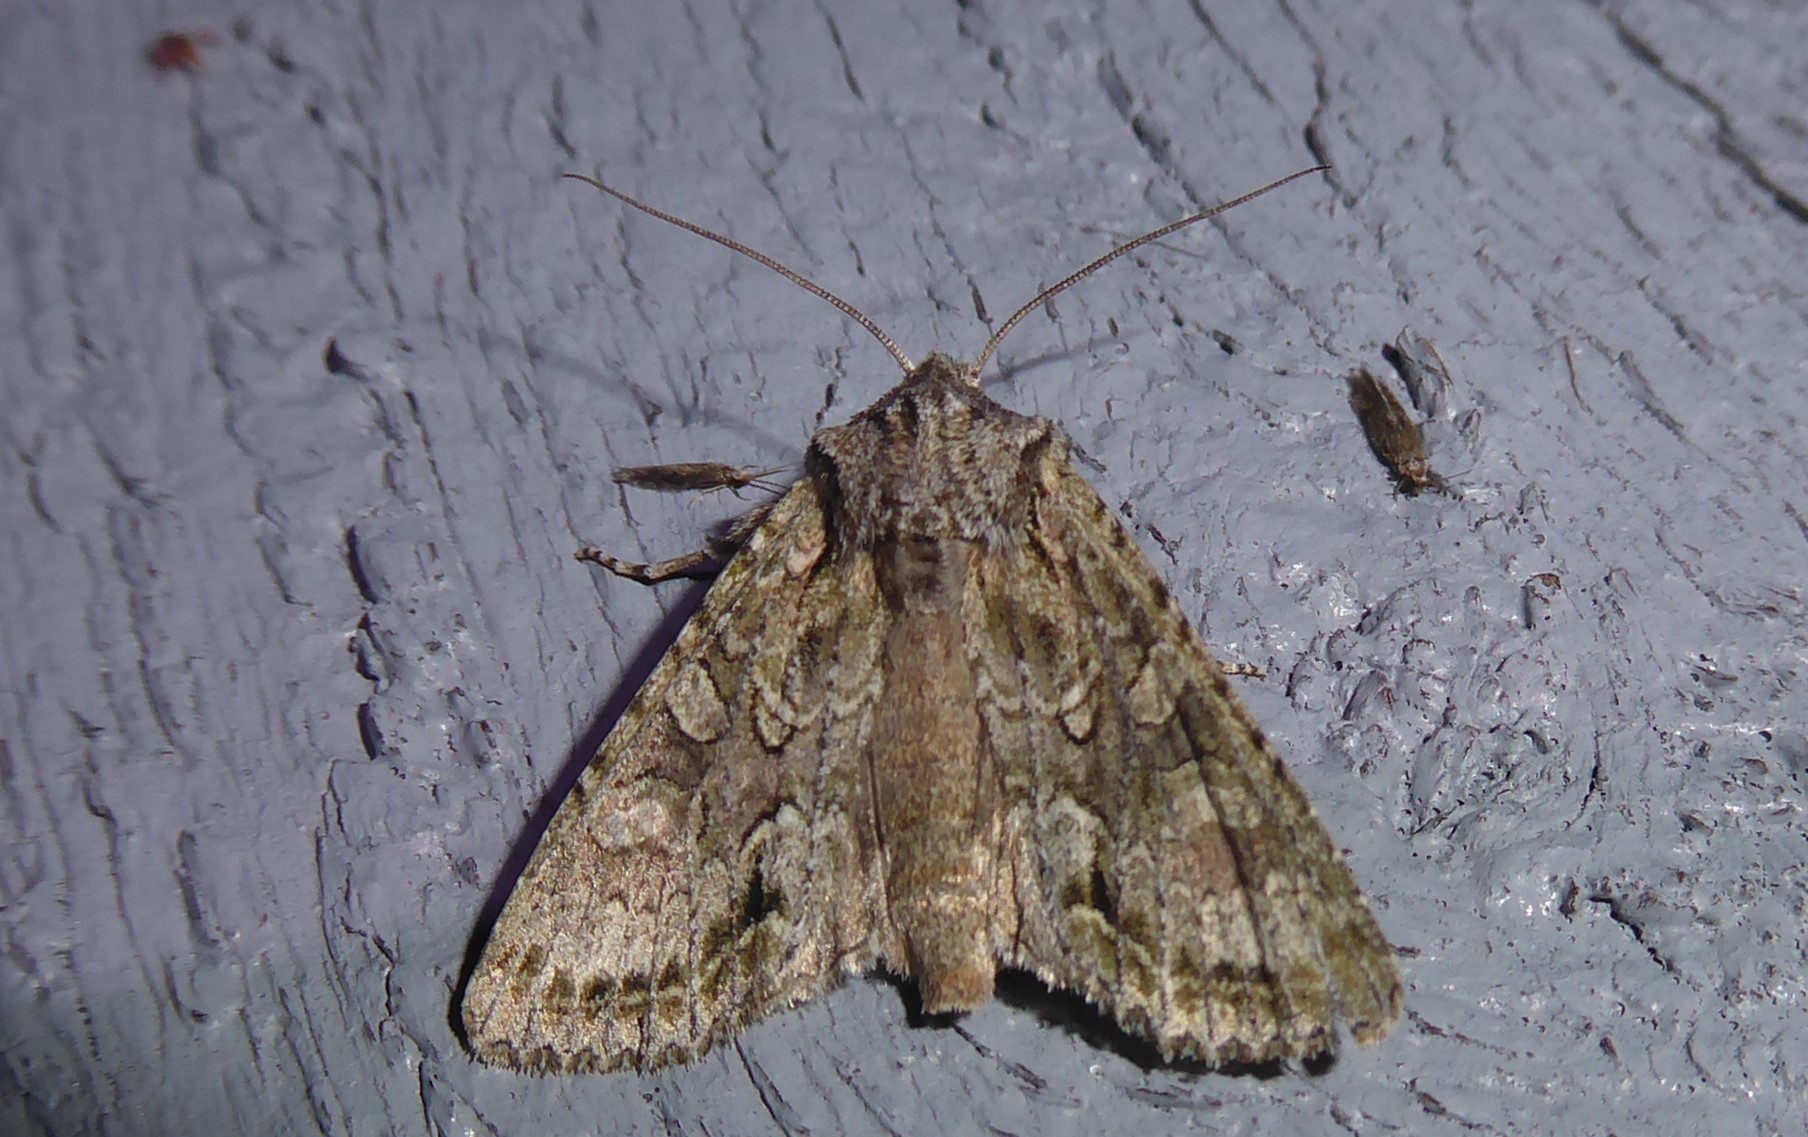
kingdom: Animalia
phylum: Arthropoda
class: Insecta
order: Lepidoptera
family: Noctuidae
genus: Ichneutica
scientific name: Ichneutica mutans
